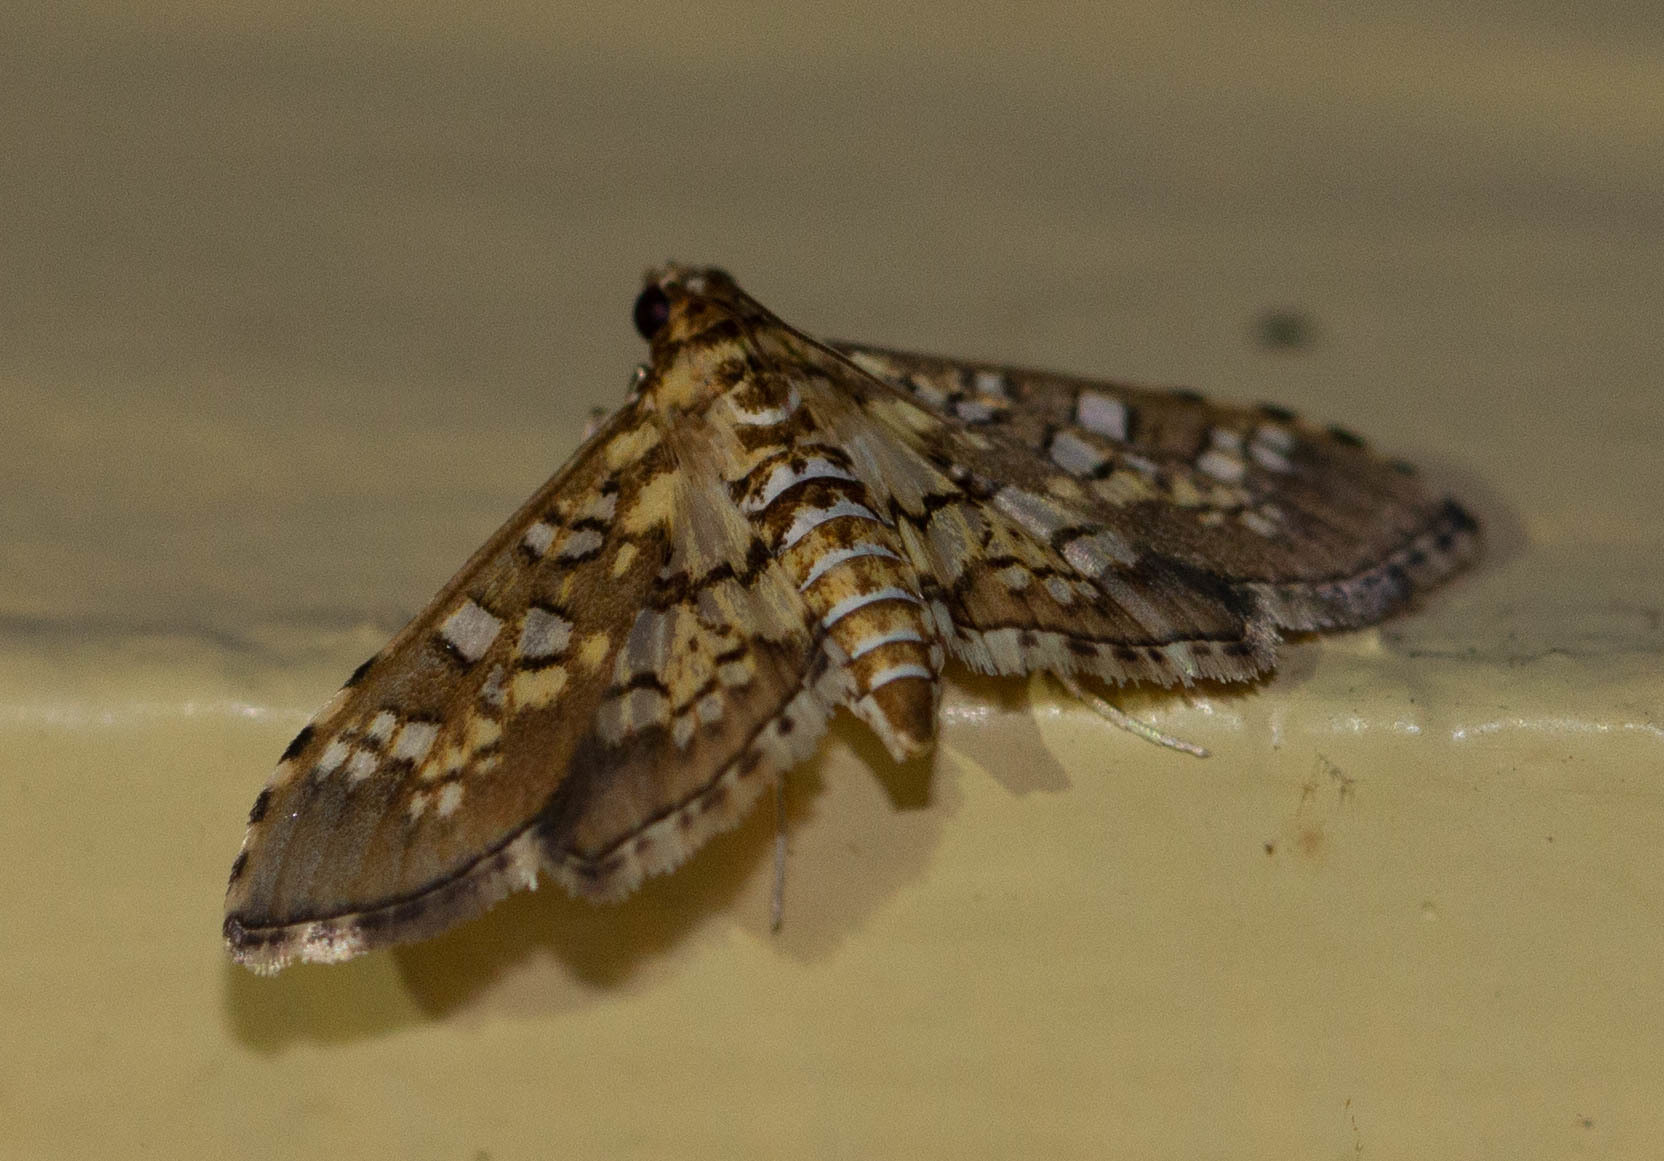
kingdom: Animalia
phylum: Arthropoda
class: Insecta
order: Lepidoptera
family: Crambidae
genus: Samea
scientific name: Samea ecclesialis
